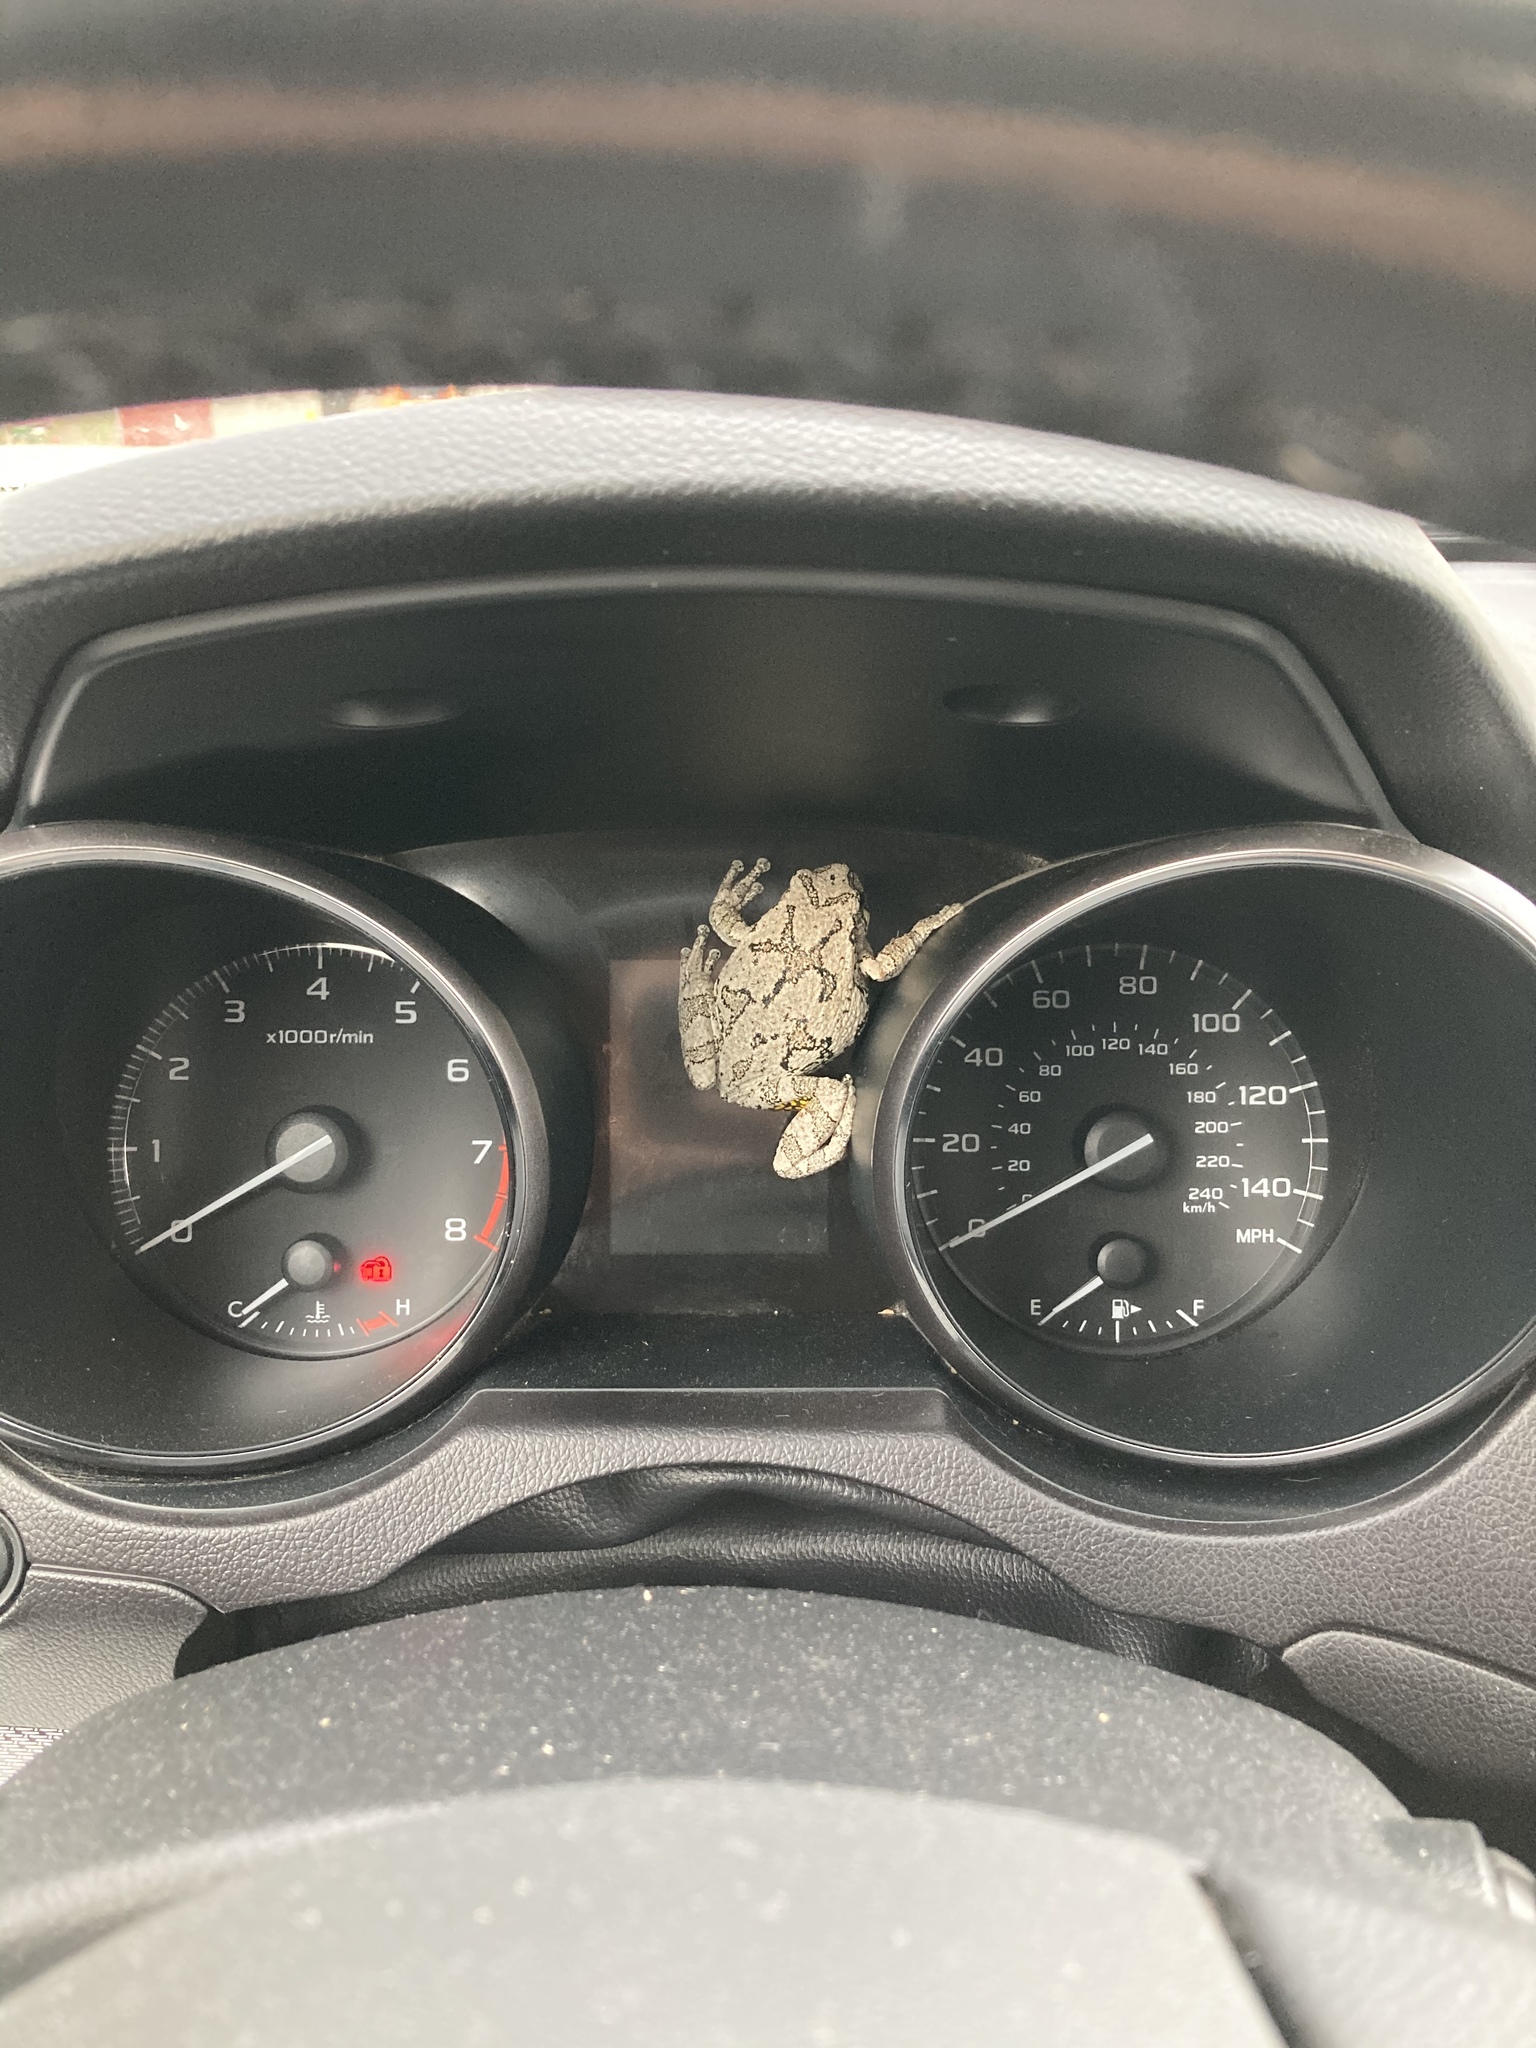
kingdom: Animalia
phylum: Chordata
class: Amphibia
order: Anura
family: Hylidae
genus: Dryophytes
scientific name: Dryophytes versicolor
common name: Gray treefrog
